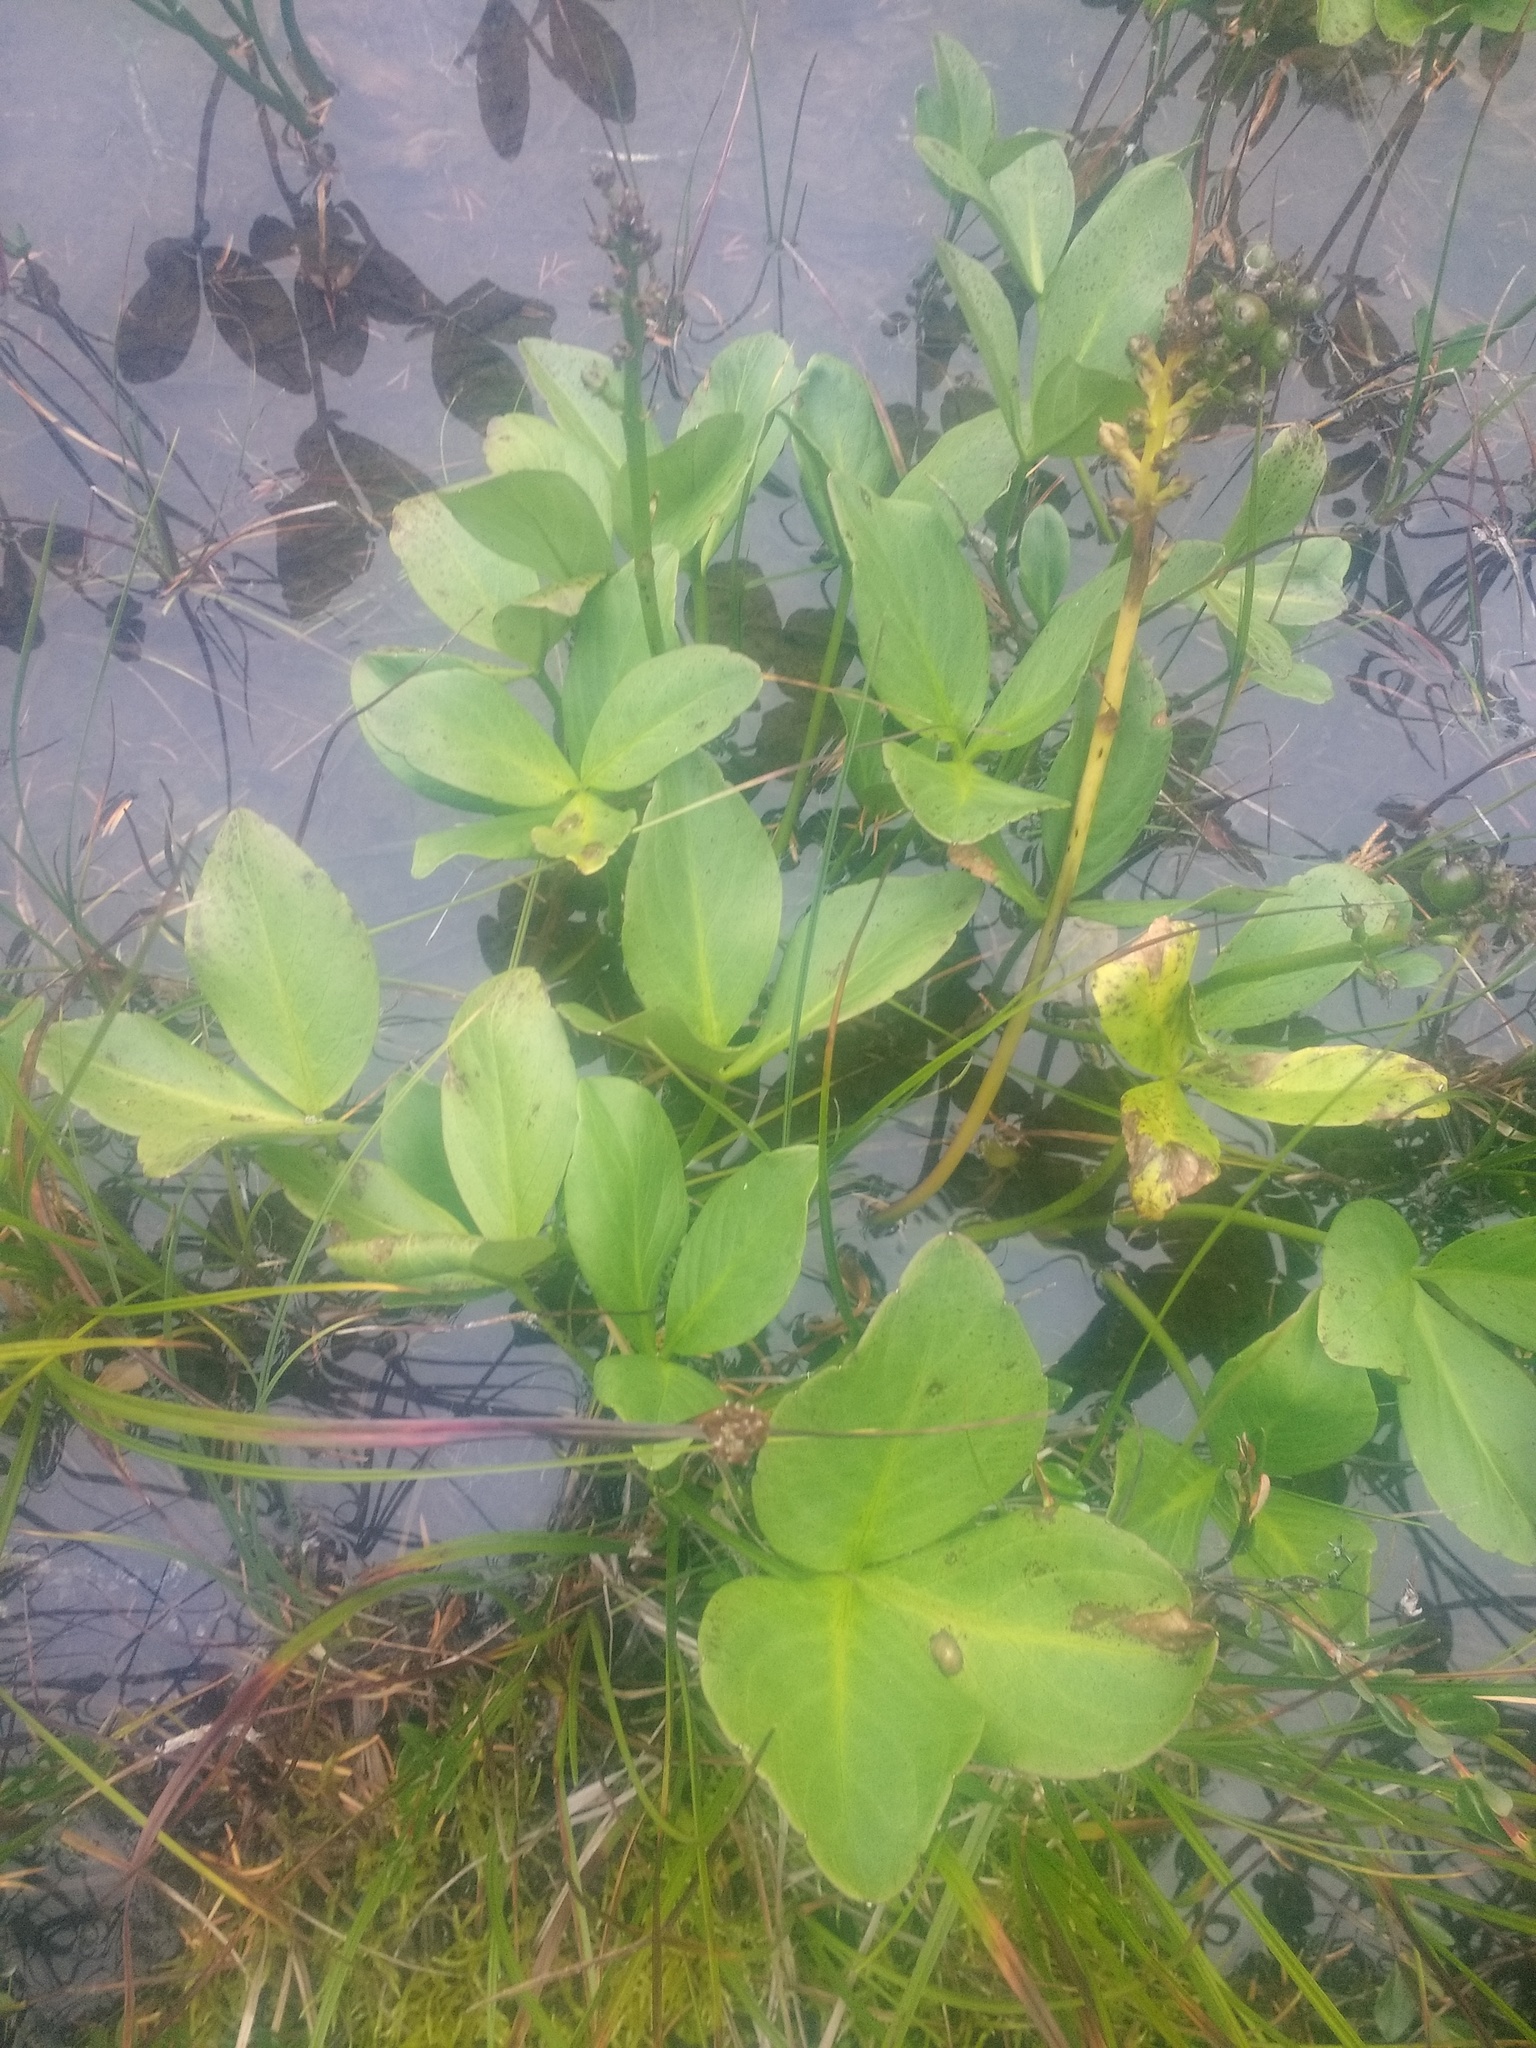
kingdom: Plantae
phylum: Tracheophyta
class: Magnoliopsida
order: Asterales
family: Menyanthaceae
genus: Menyanthes
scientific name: Menyanthes trifoliata
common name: Bogbean
